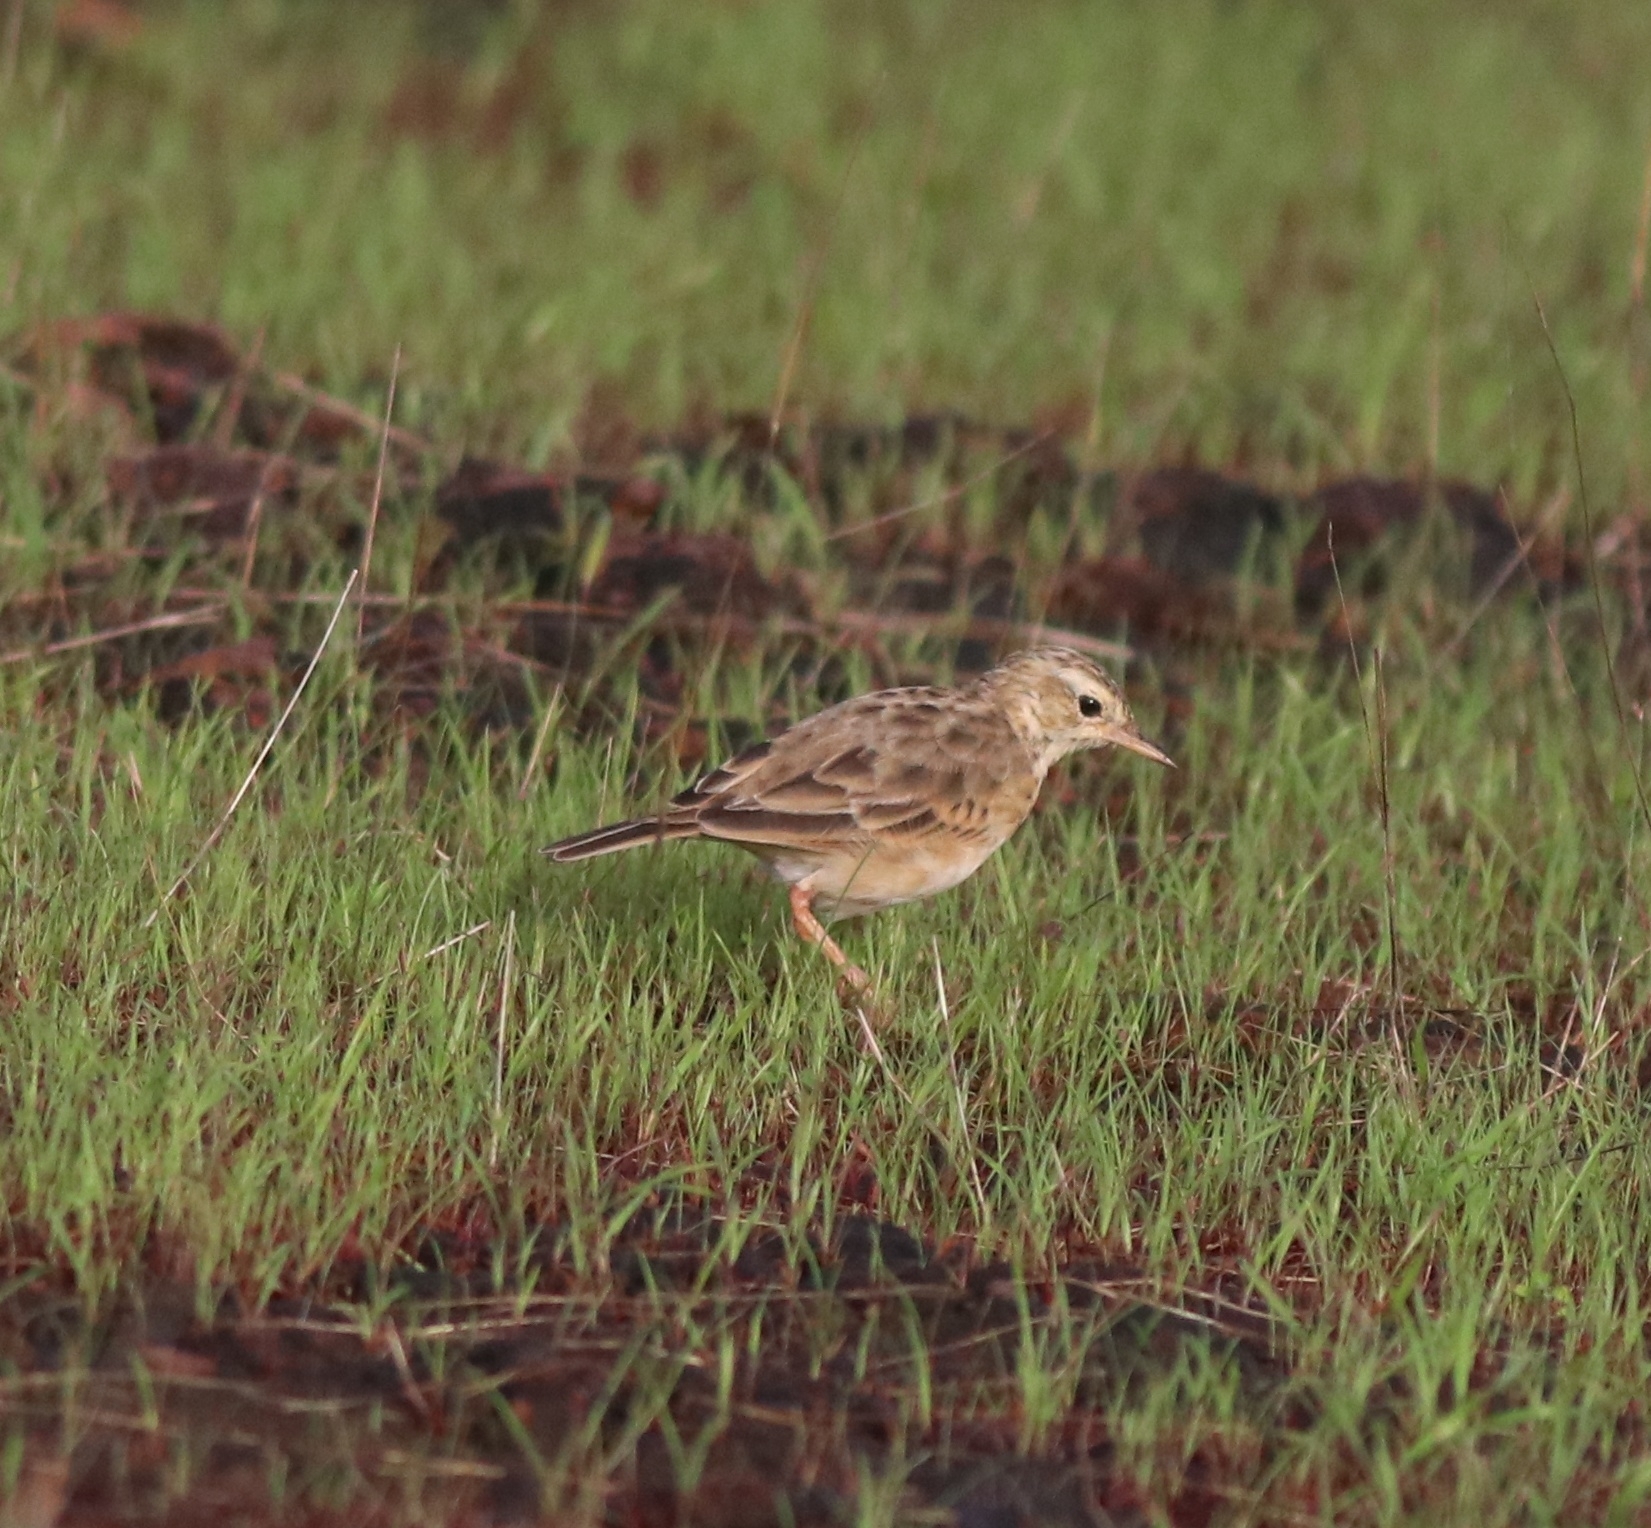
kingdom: Animalia
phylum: Chordata
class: Aves
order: Passeriformes
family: Motacillidae
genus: Anthus
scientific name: Anthus rufulus
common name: Paddyfield pipit
